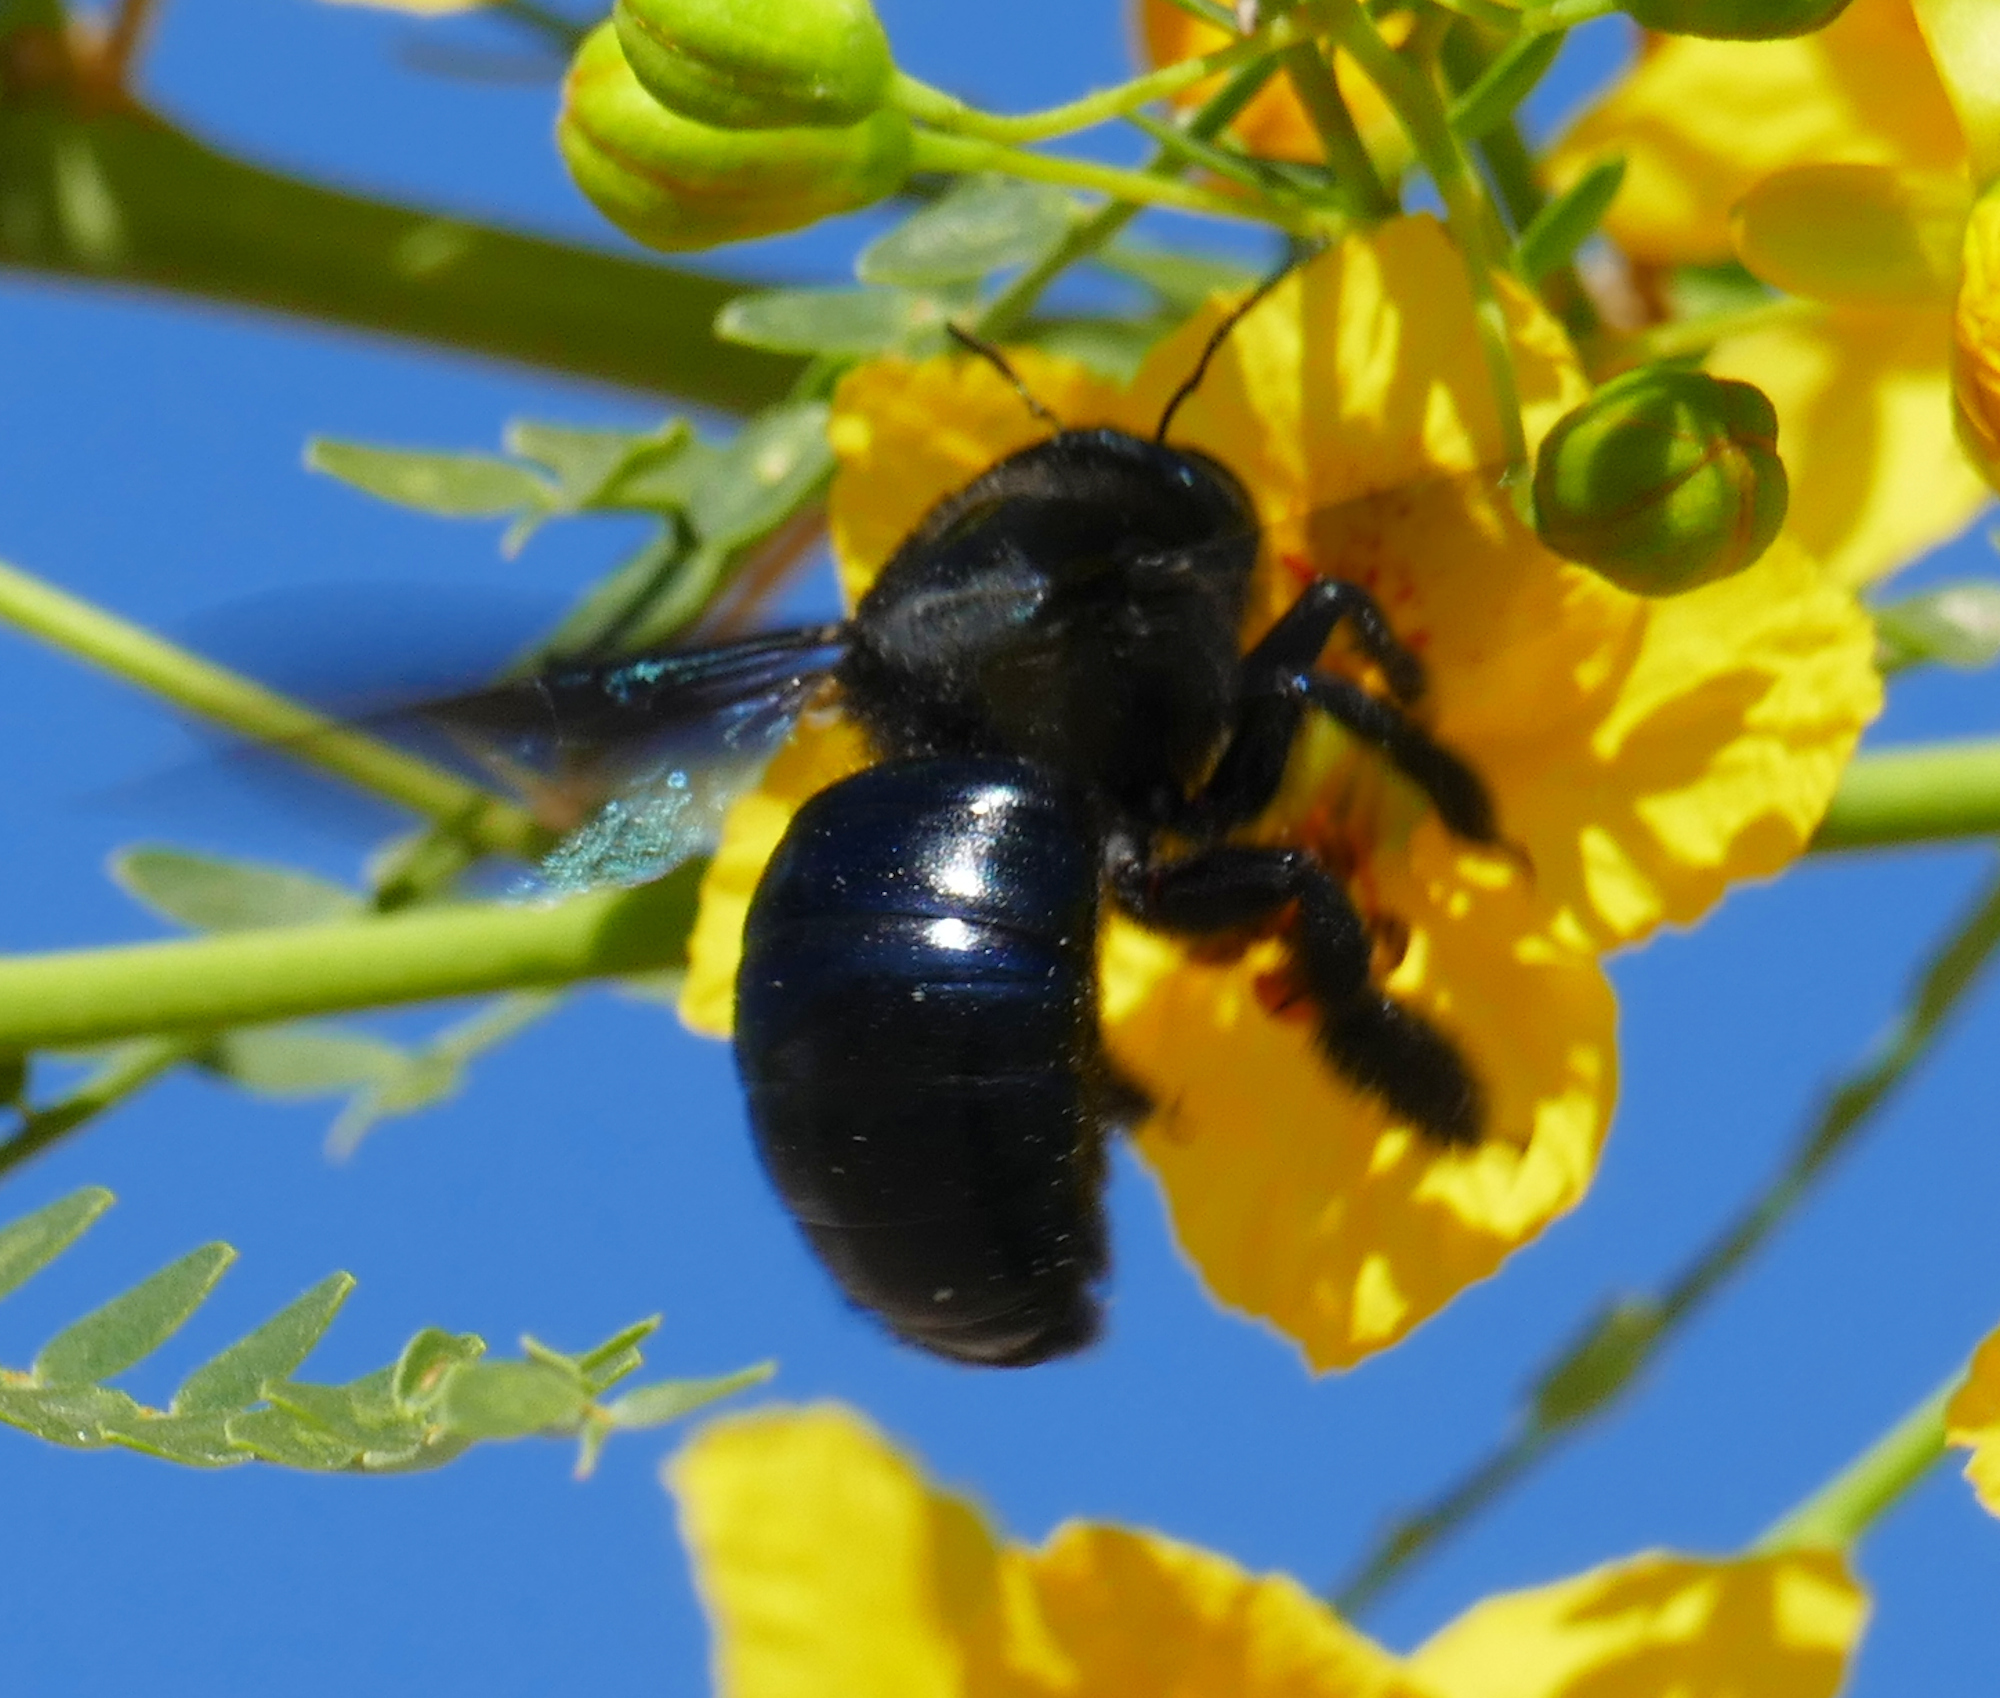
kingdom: Animalia
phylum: Arthropoda
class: Insecta
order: Hymenoptera
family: Apidae
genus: Xylocopa
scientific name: Xylocopa californica
